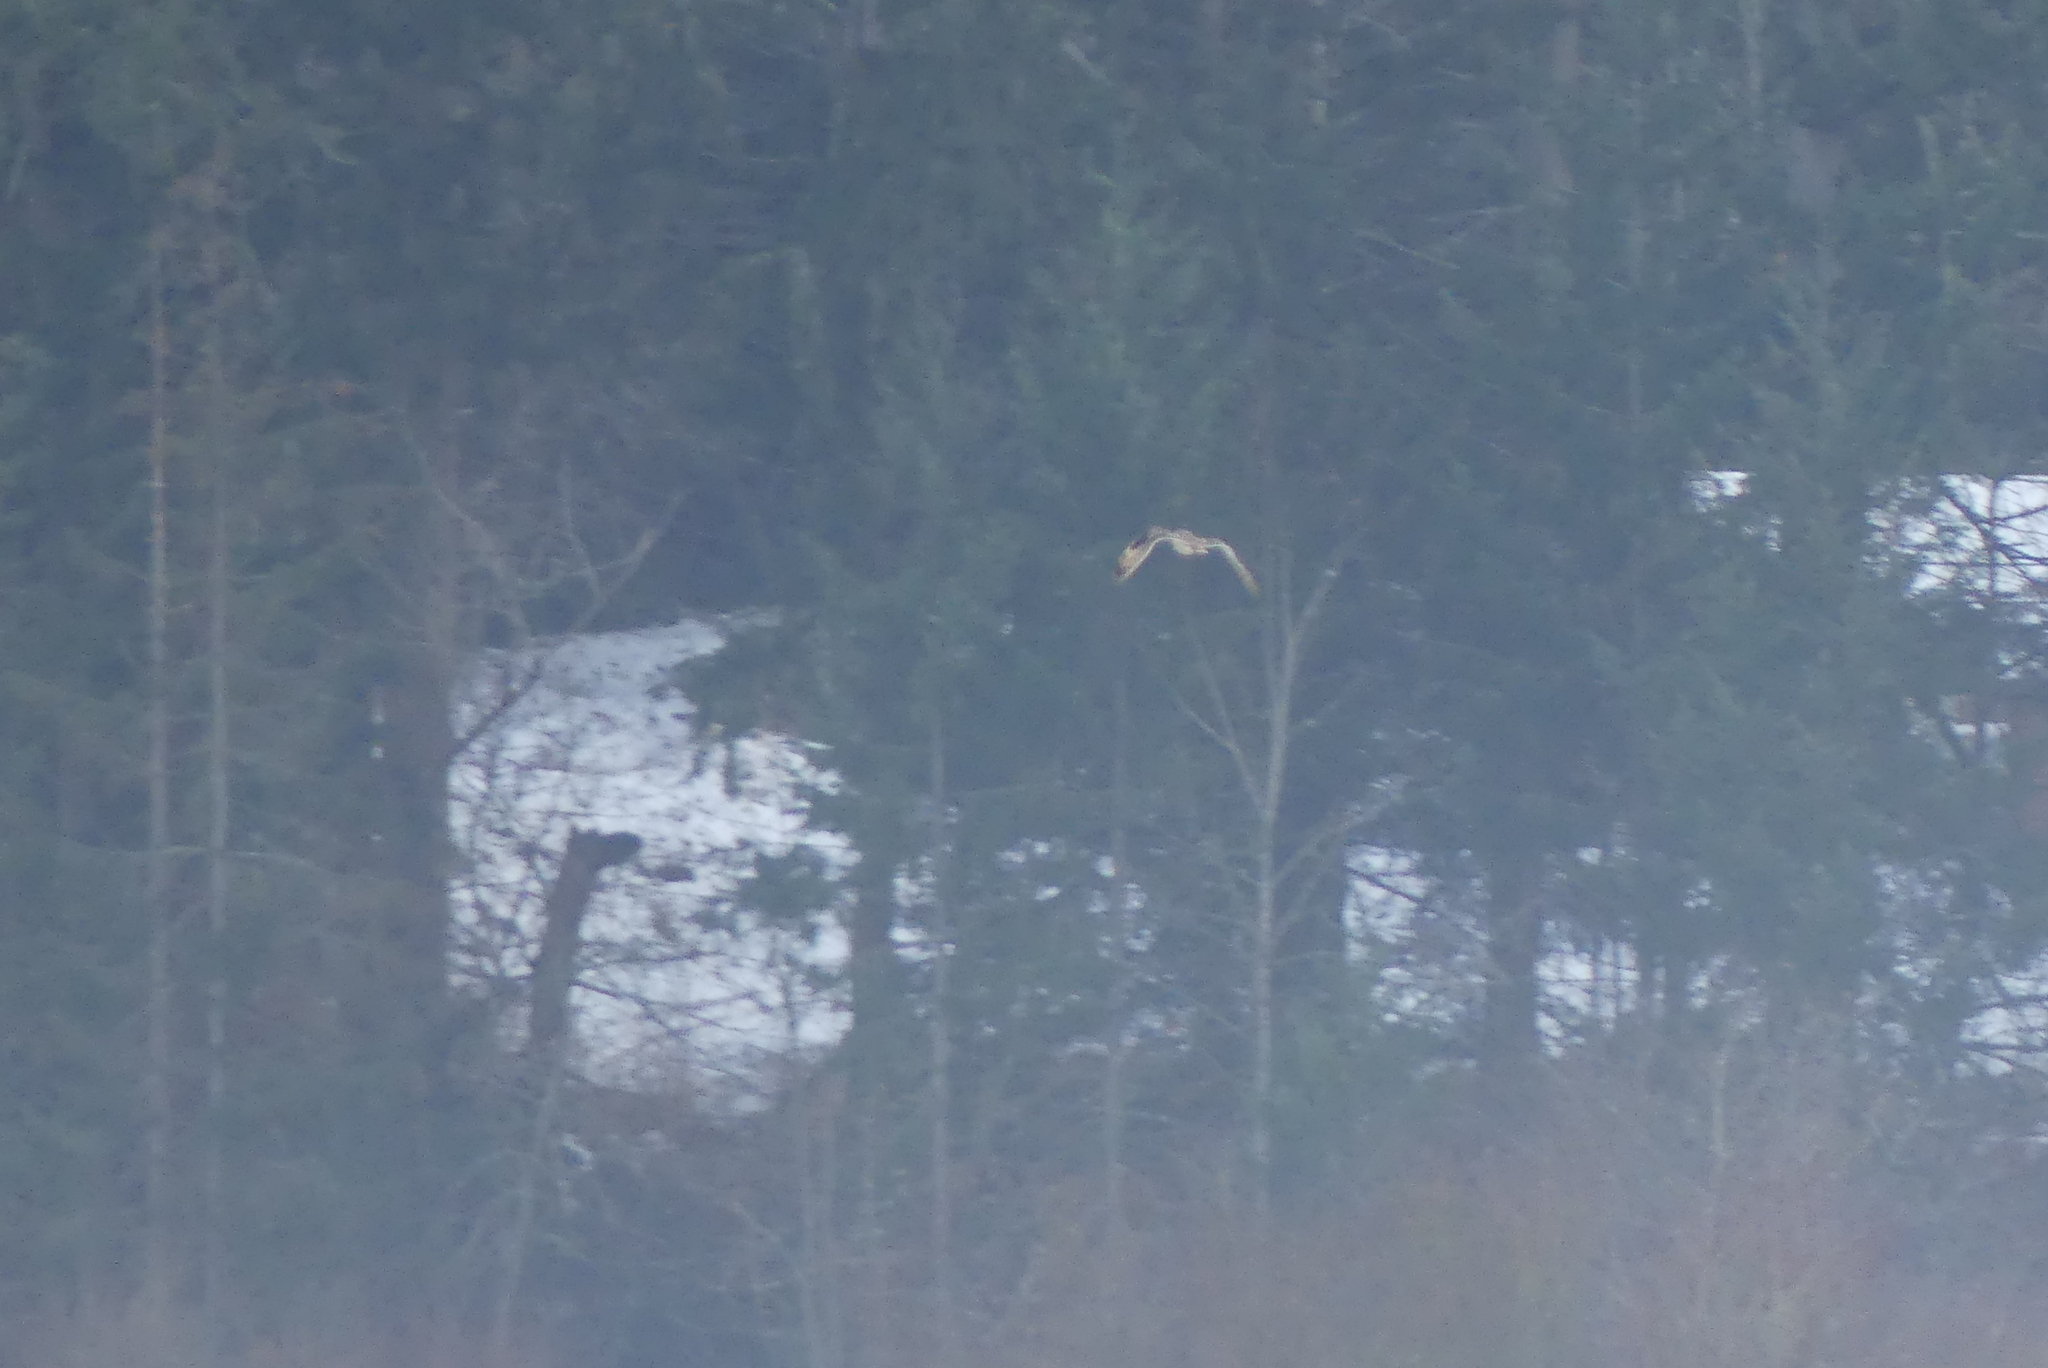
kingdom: Animalia
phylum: Chordata
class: Aves
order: Strigiformes
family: Strigidae
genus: Asio
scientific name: Asio flammeus
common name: Short-eared owl
